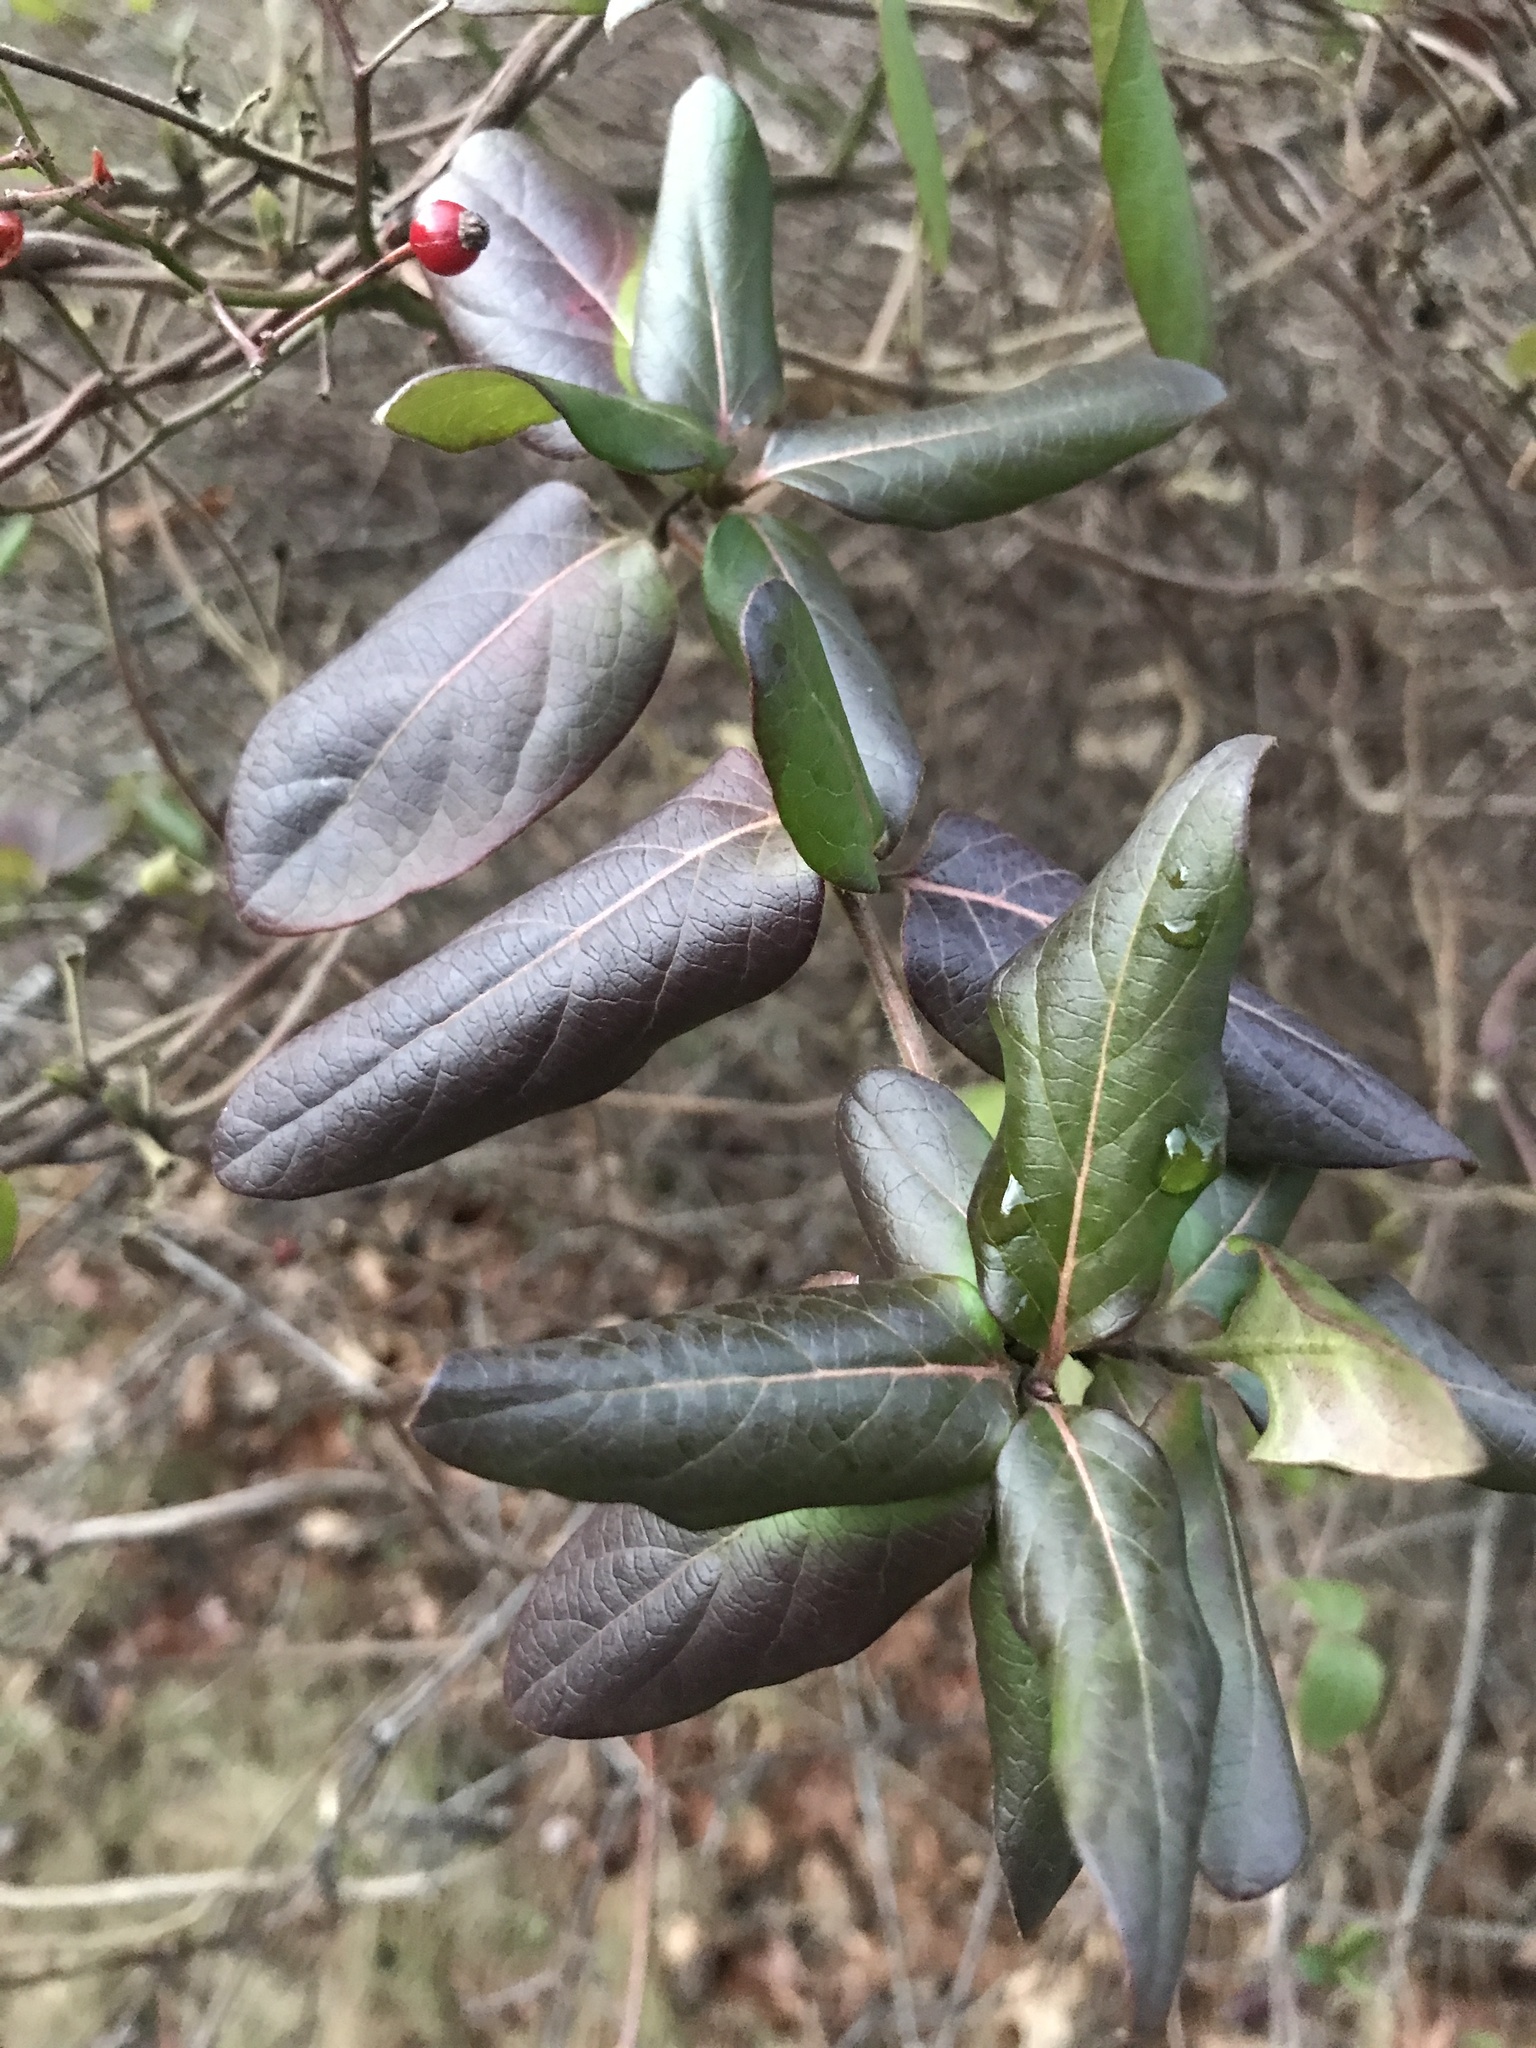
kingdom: Plantae
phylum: Tracheophyta
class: Magnoliopsida
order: Dipsacales
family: Caprifoliaceae
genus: Lonicera
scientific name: Lonicera japonica
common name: Japanese honeysuckle
